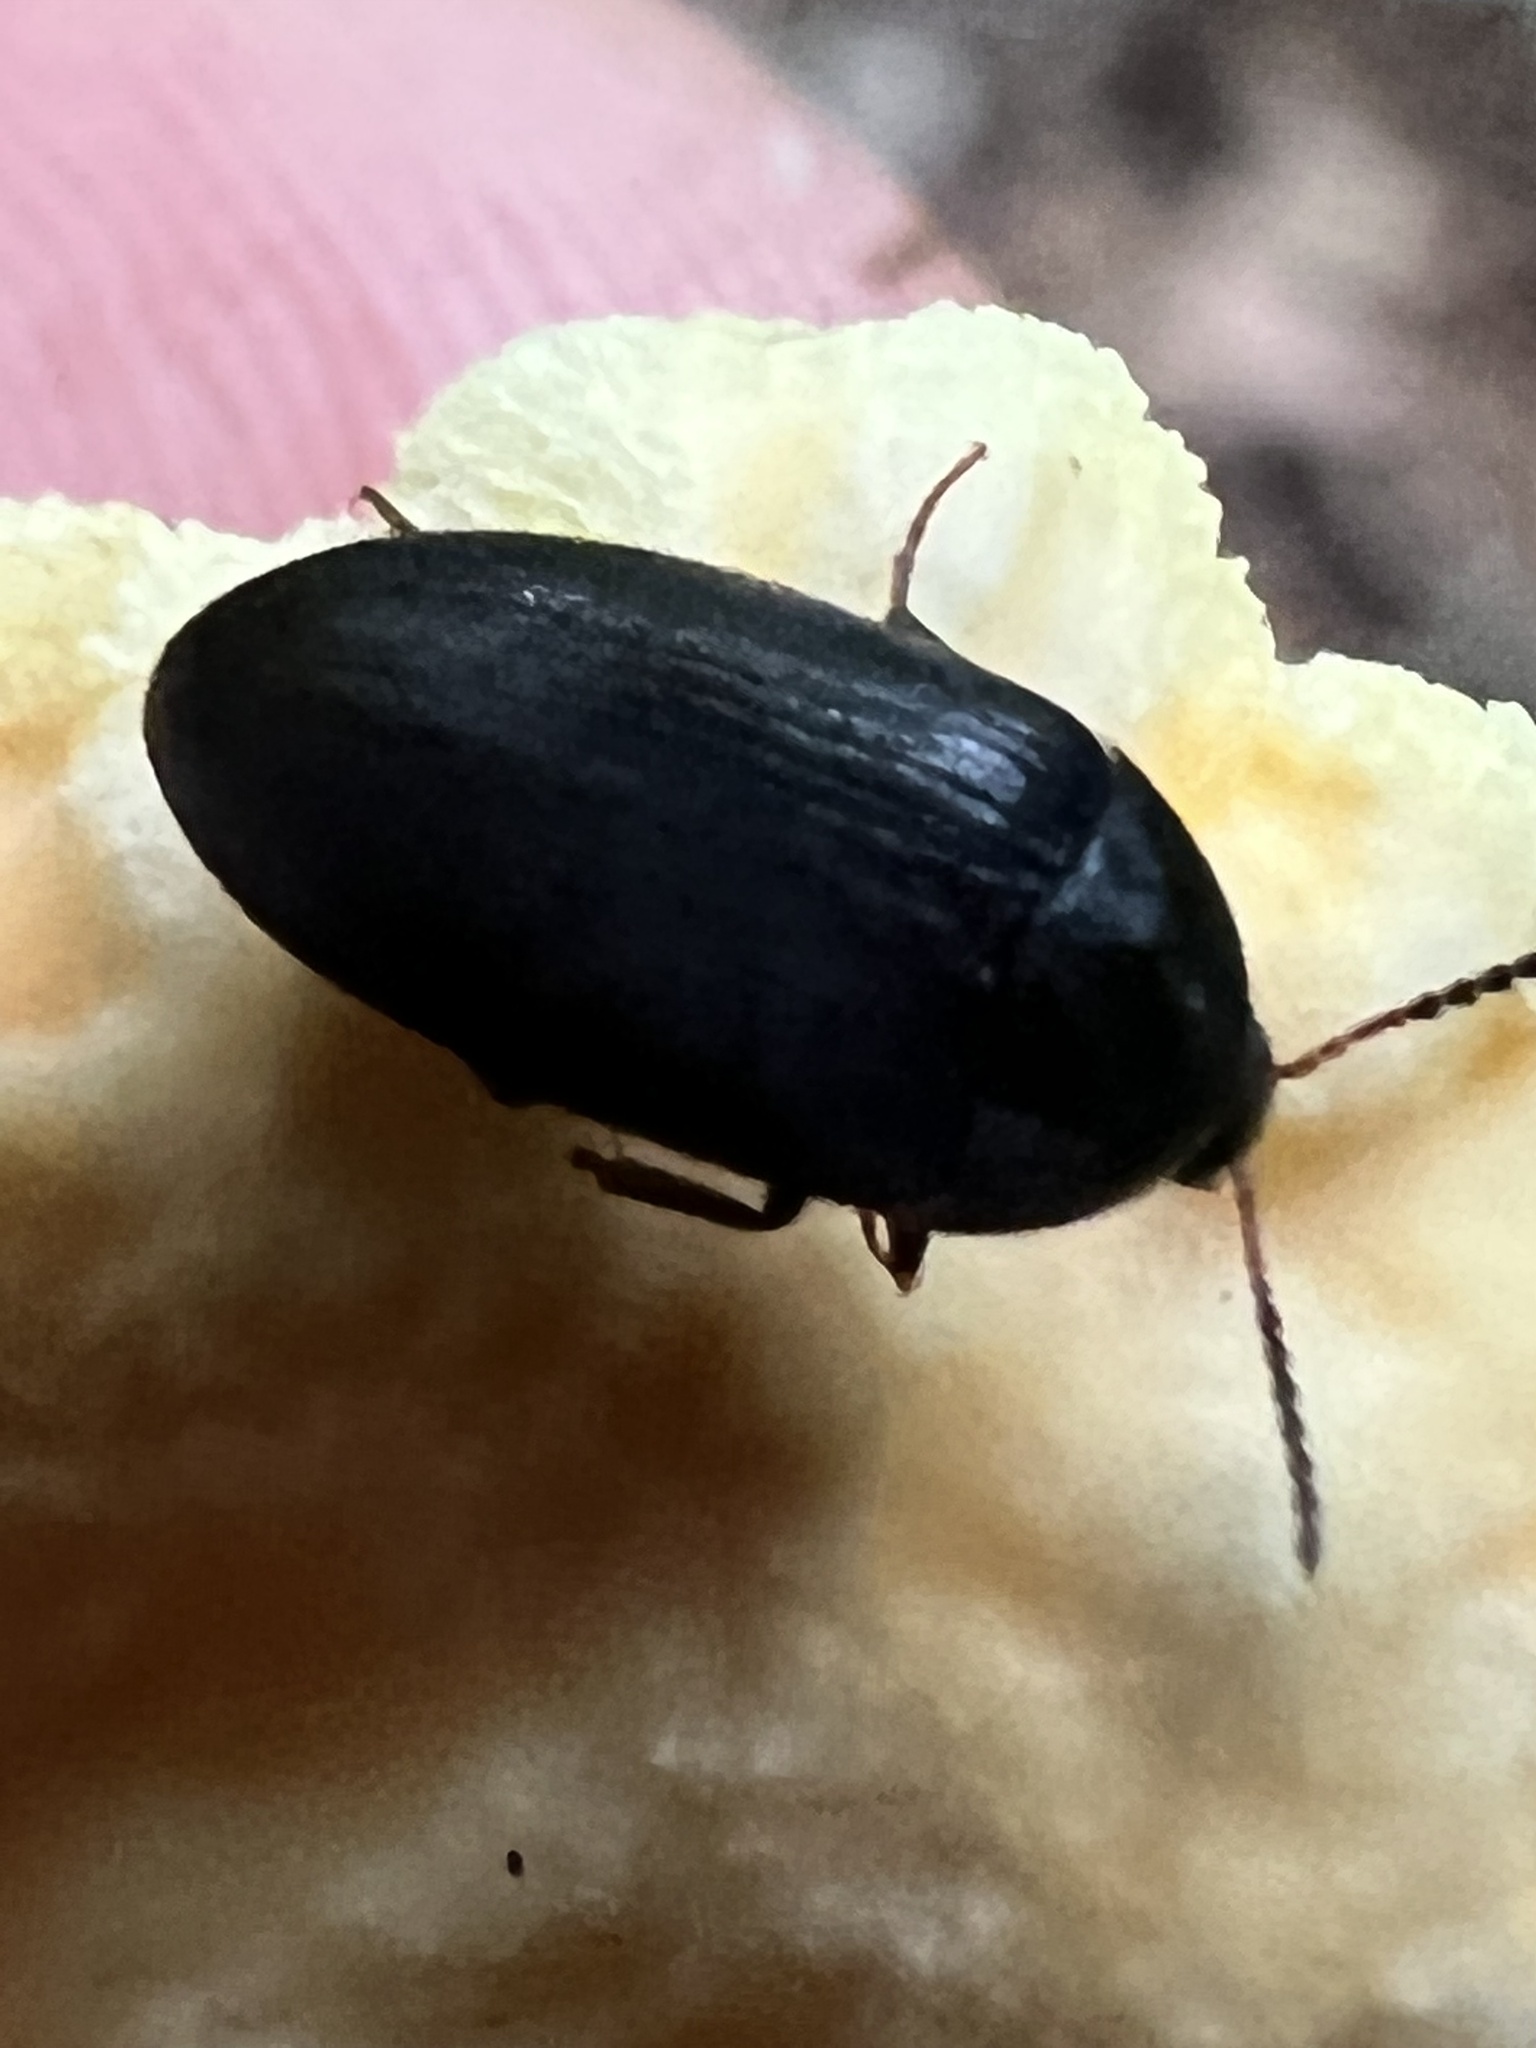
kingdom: Animalia
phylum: Arthropoda
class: Insecta
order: Coleoptera
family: Tetratomidae
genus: Synstrophus
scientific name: Synstrophus repandus
